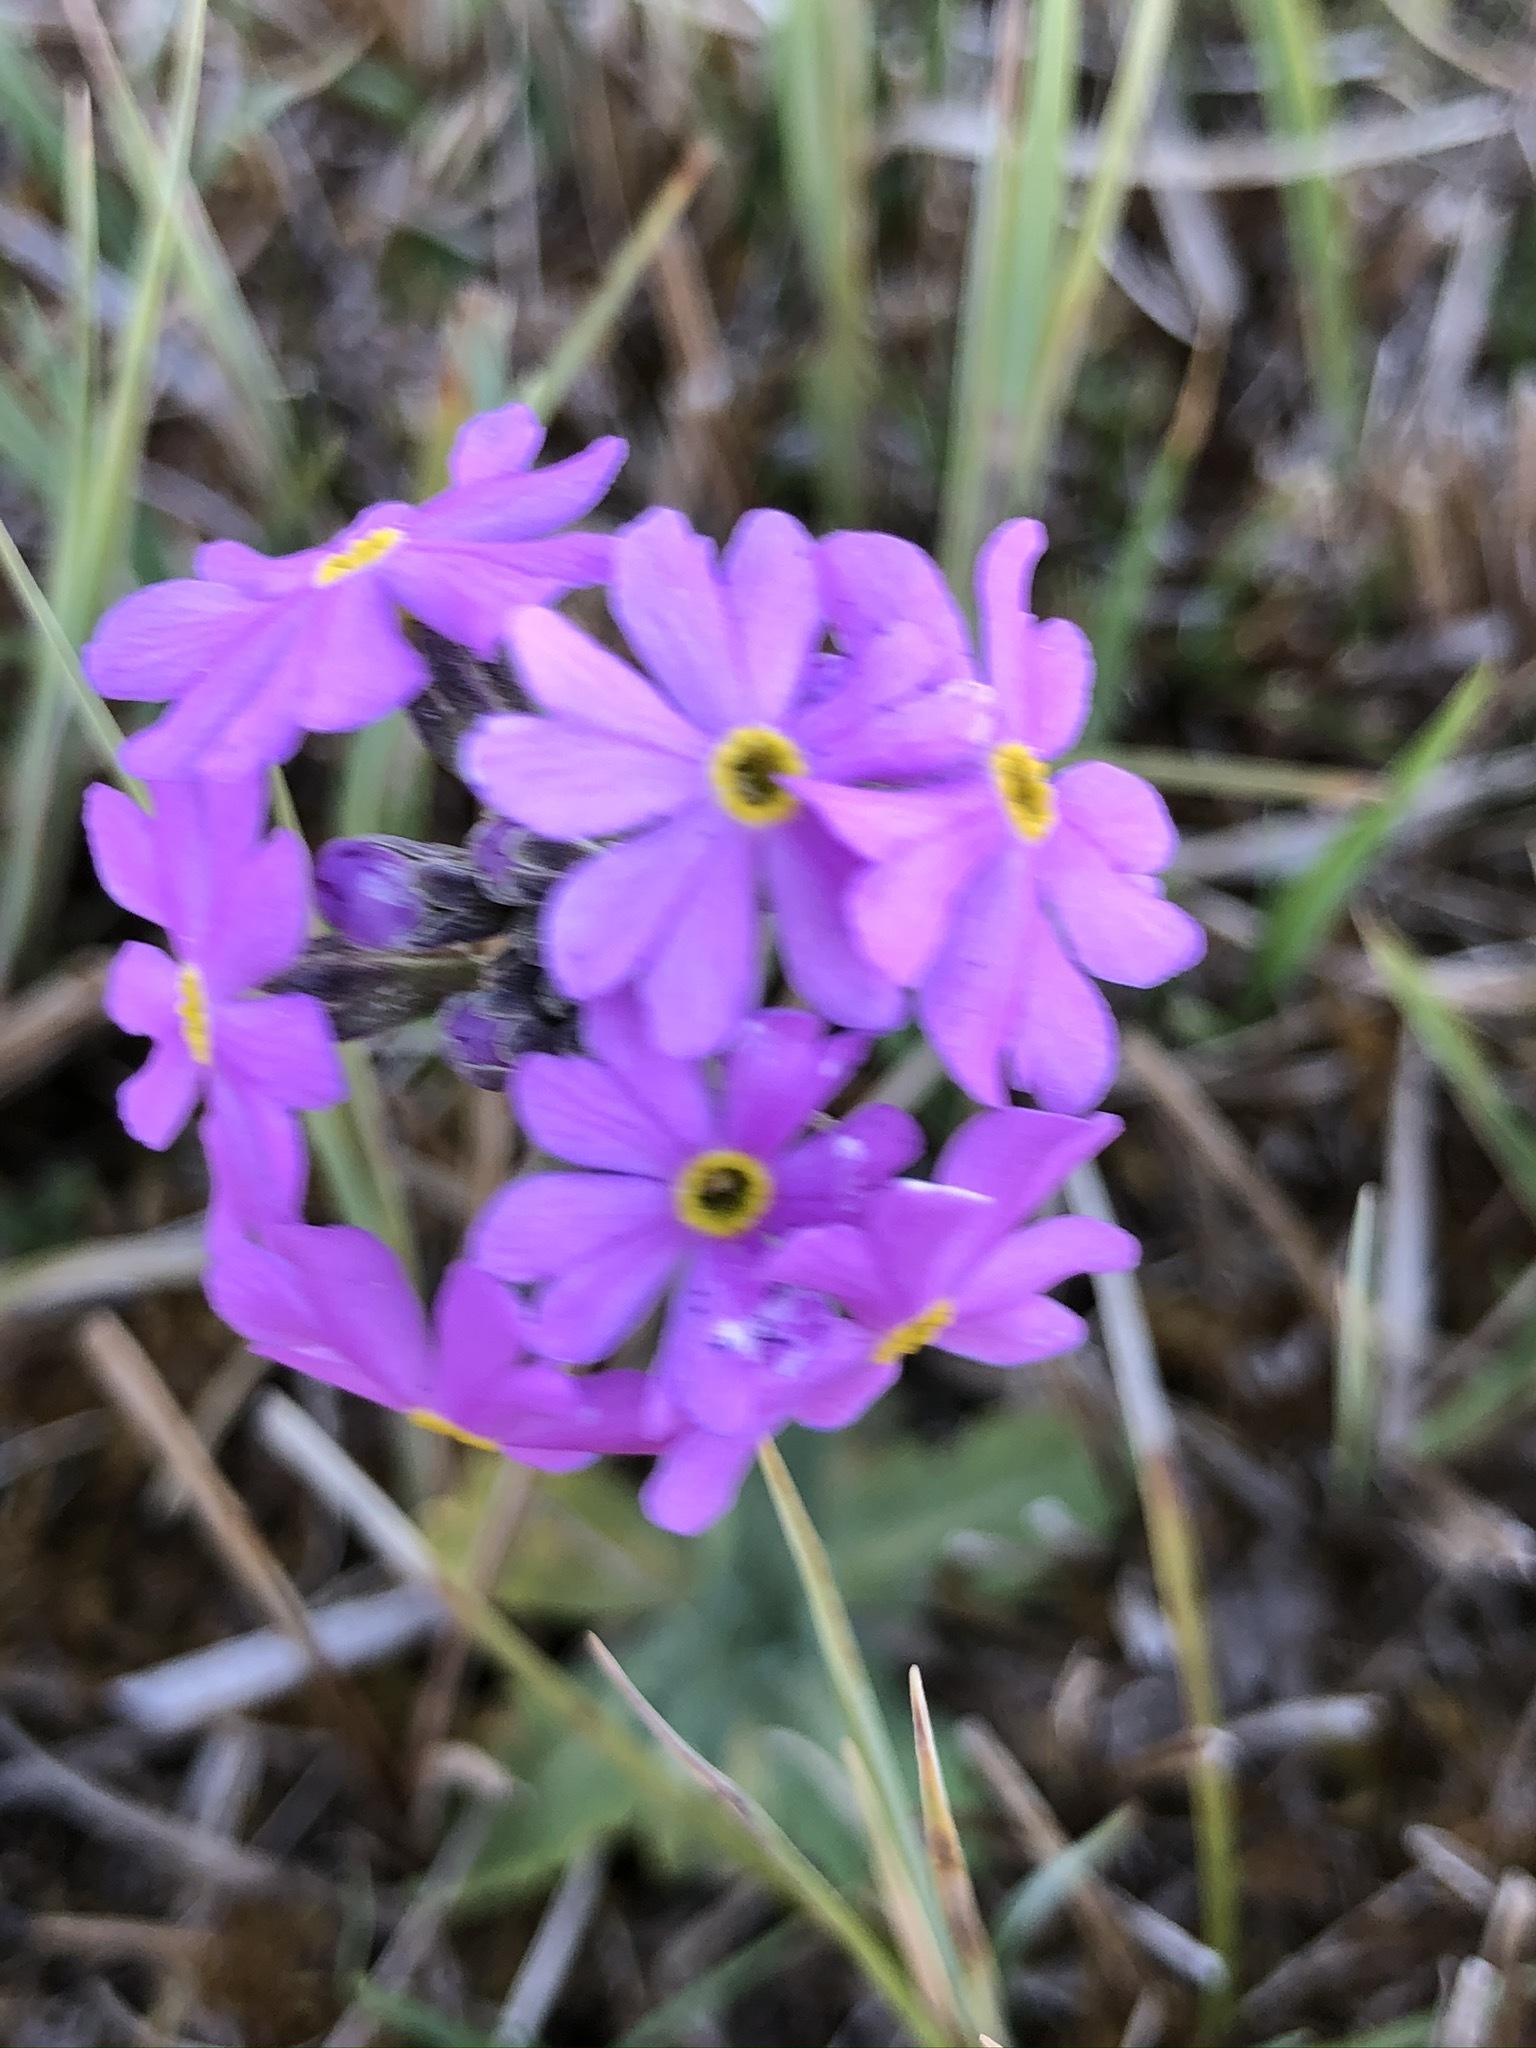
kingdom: Plantae
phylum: Tracheophyta
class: Magnoliopsida
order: Ericales
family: Primulaceae
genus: Primula
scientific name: Primula farinosa
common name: Bird's-eye primrose
